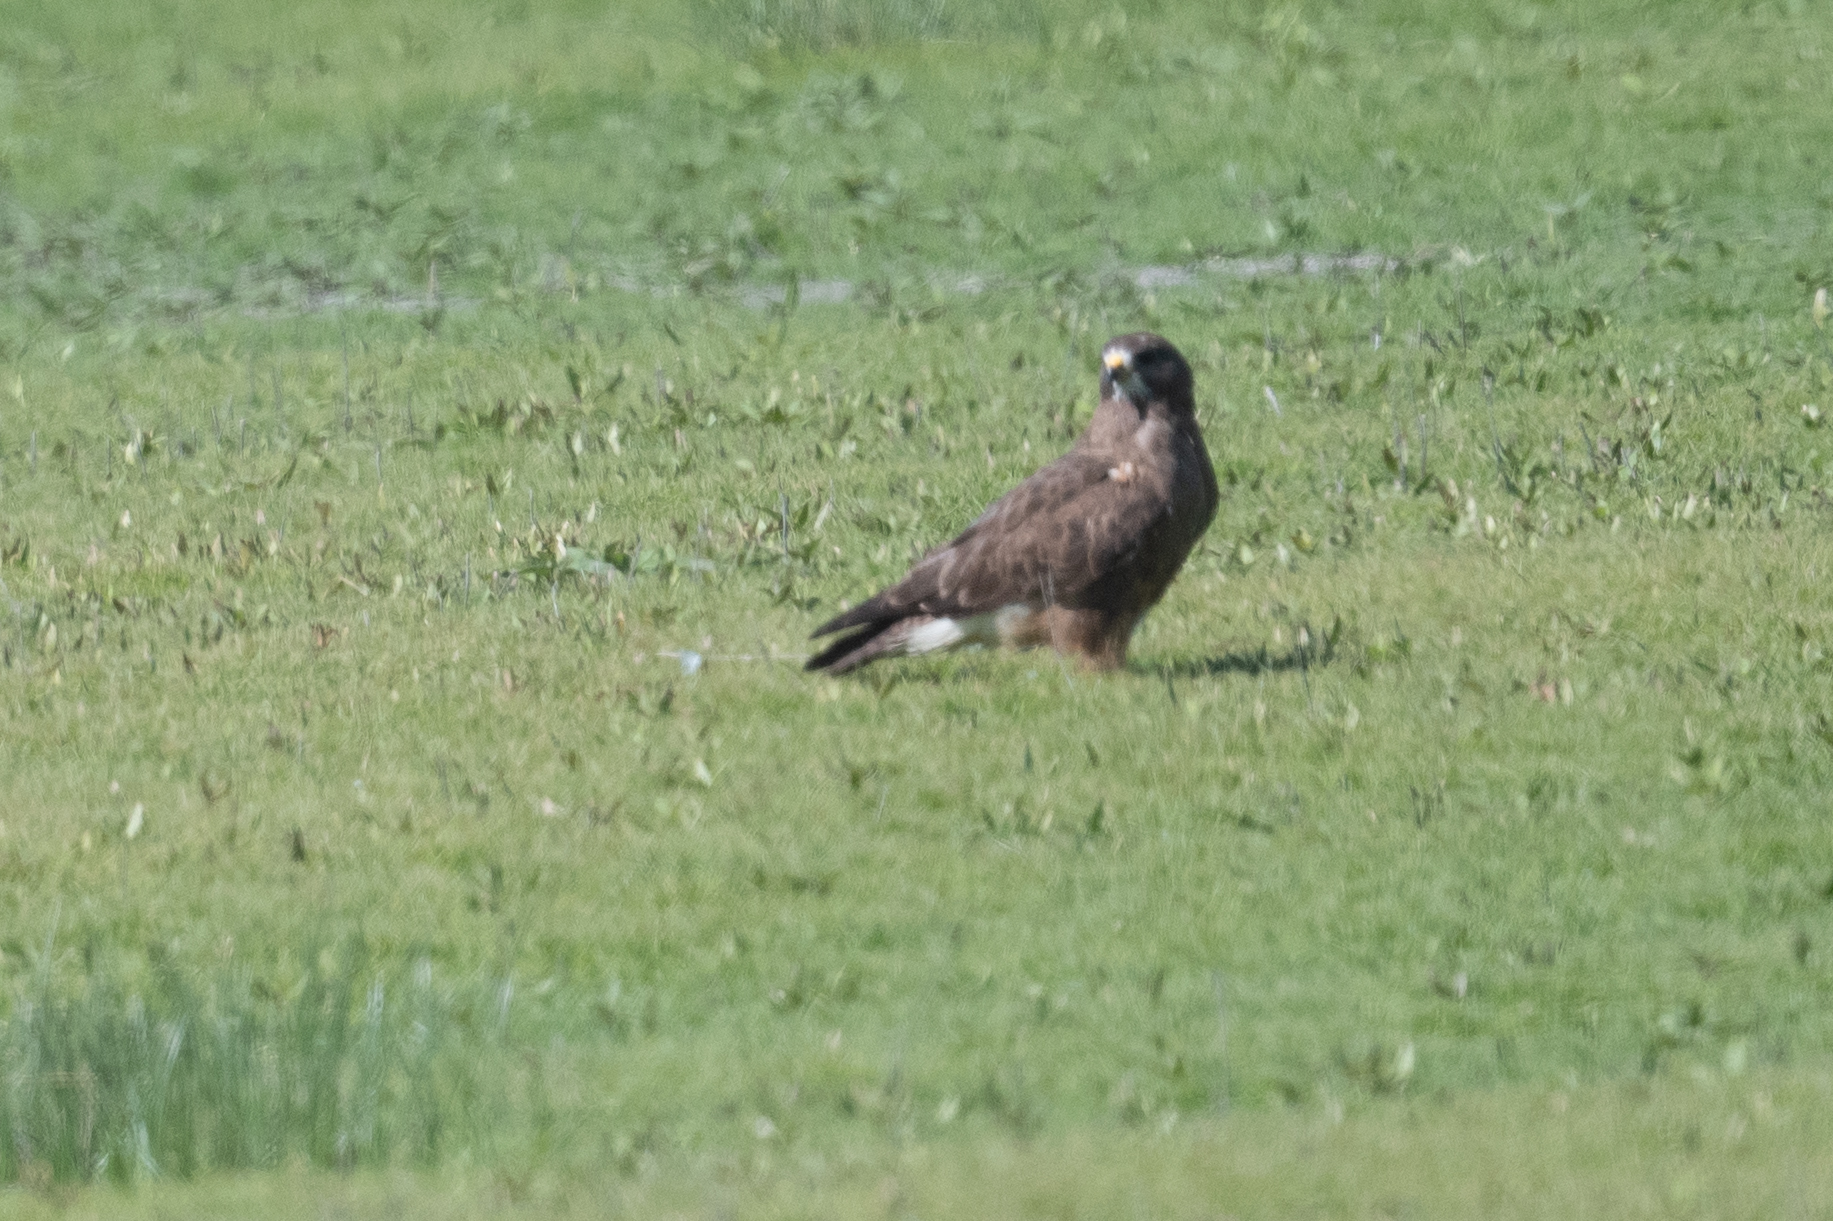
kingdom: Animalia
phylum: Chordata
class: Aves
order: Accipitriformes
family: Accipitridae
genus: Buteo
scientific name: Buteo swainsoni
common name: Swainson's hawk
